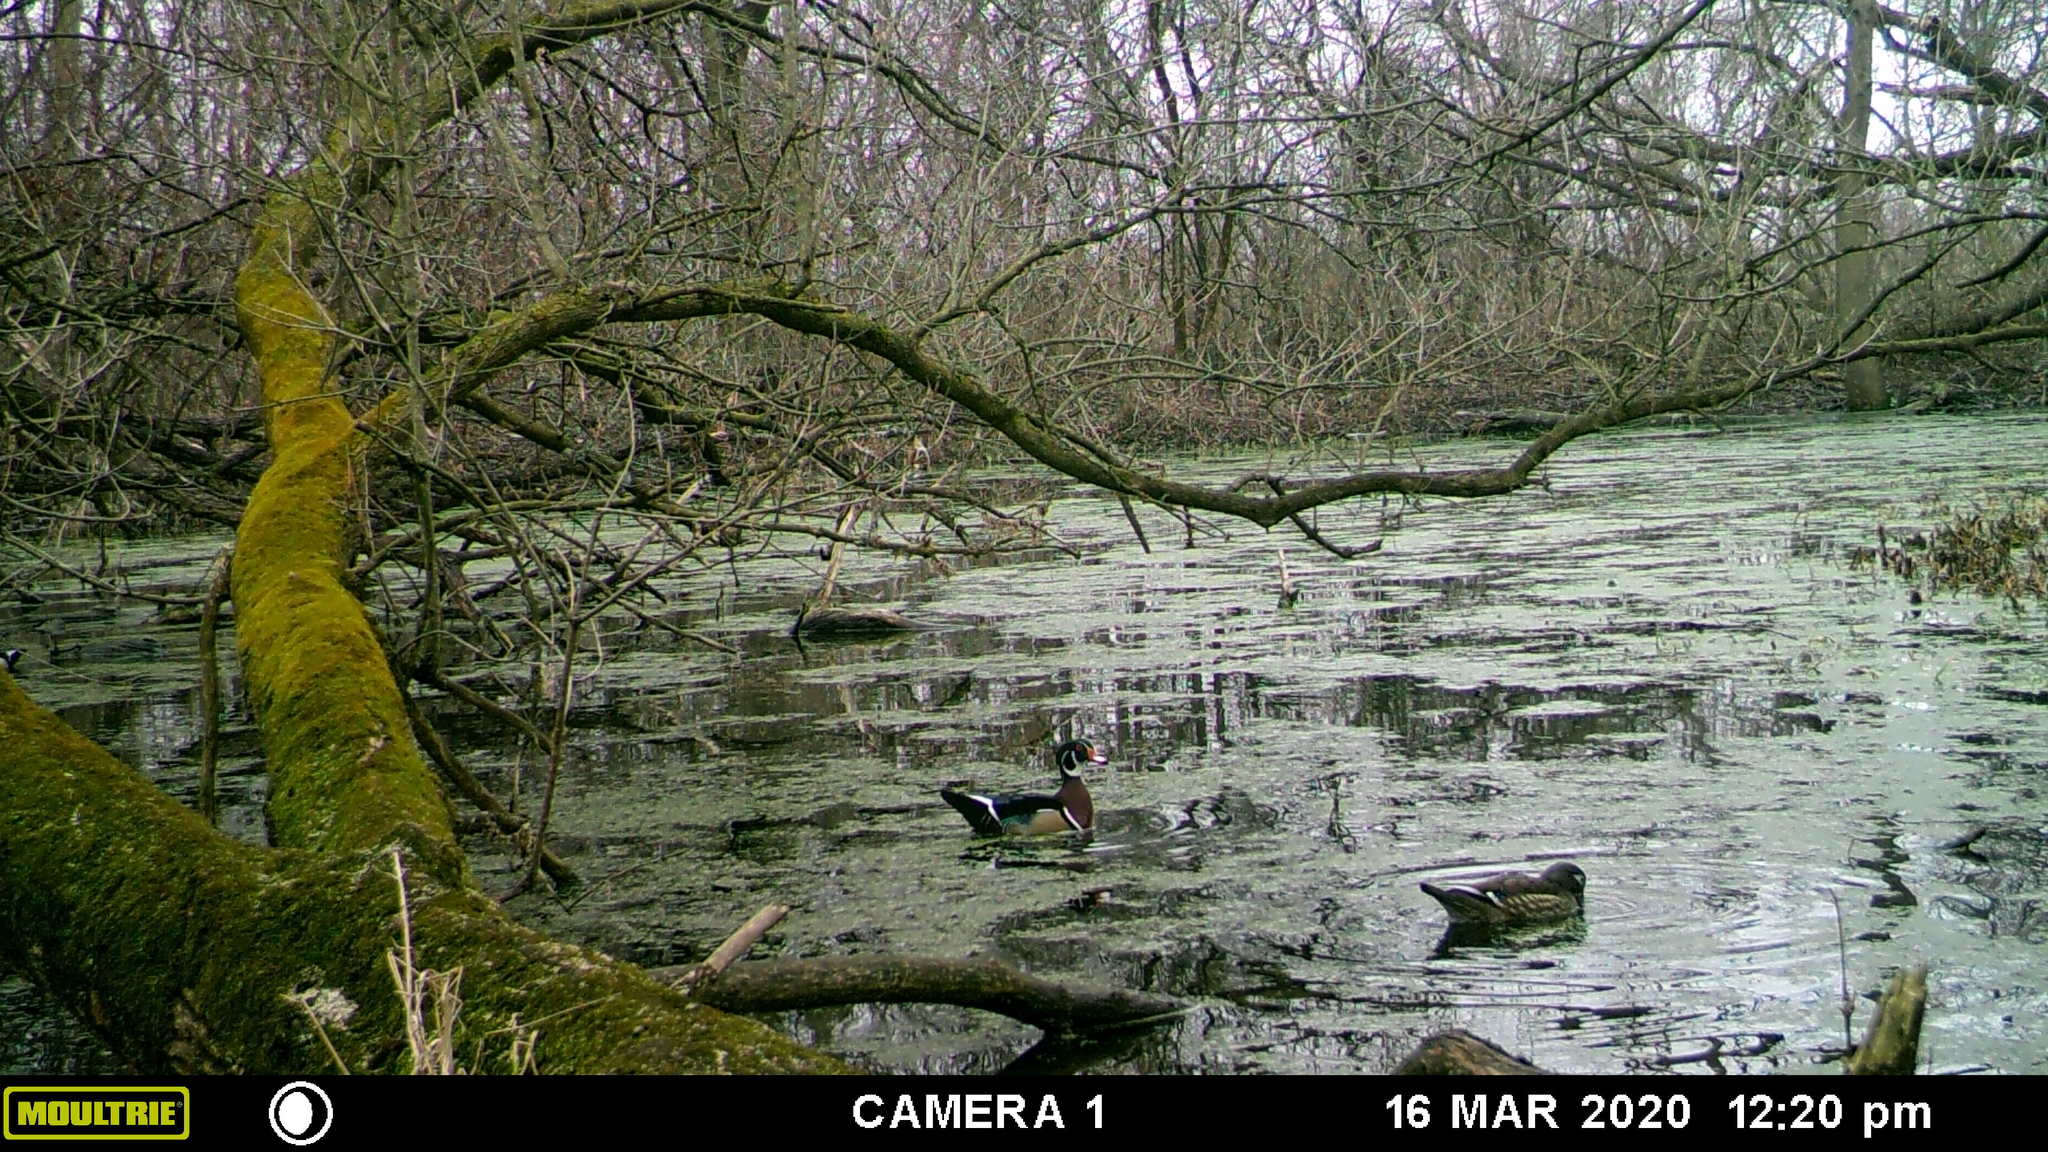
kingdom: Animalia
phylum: Chordata
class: Aves
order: Anseriformes
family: Anatidae
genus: Aix
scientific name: Aix sponsa
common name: Wood duck
